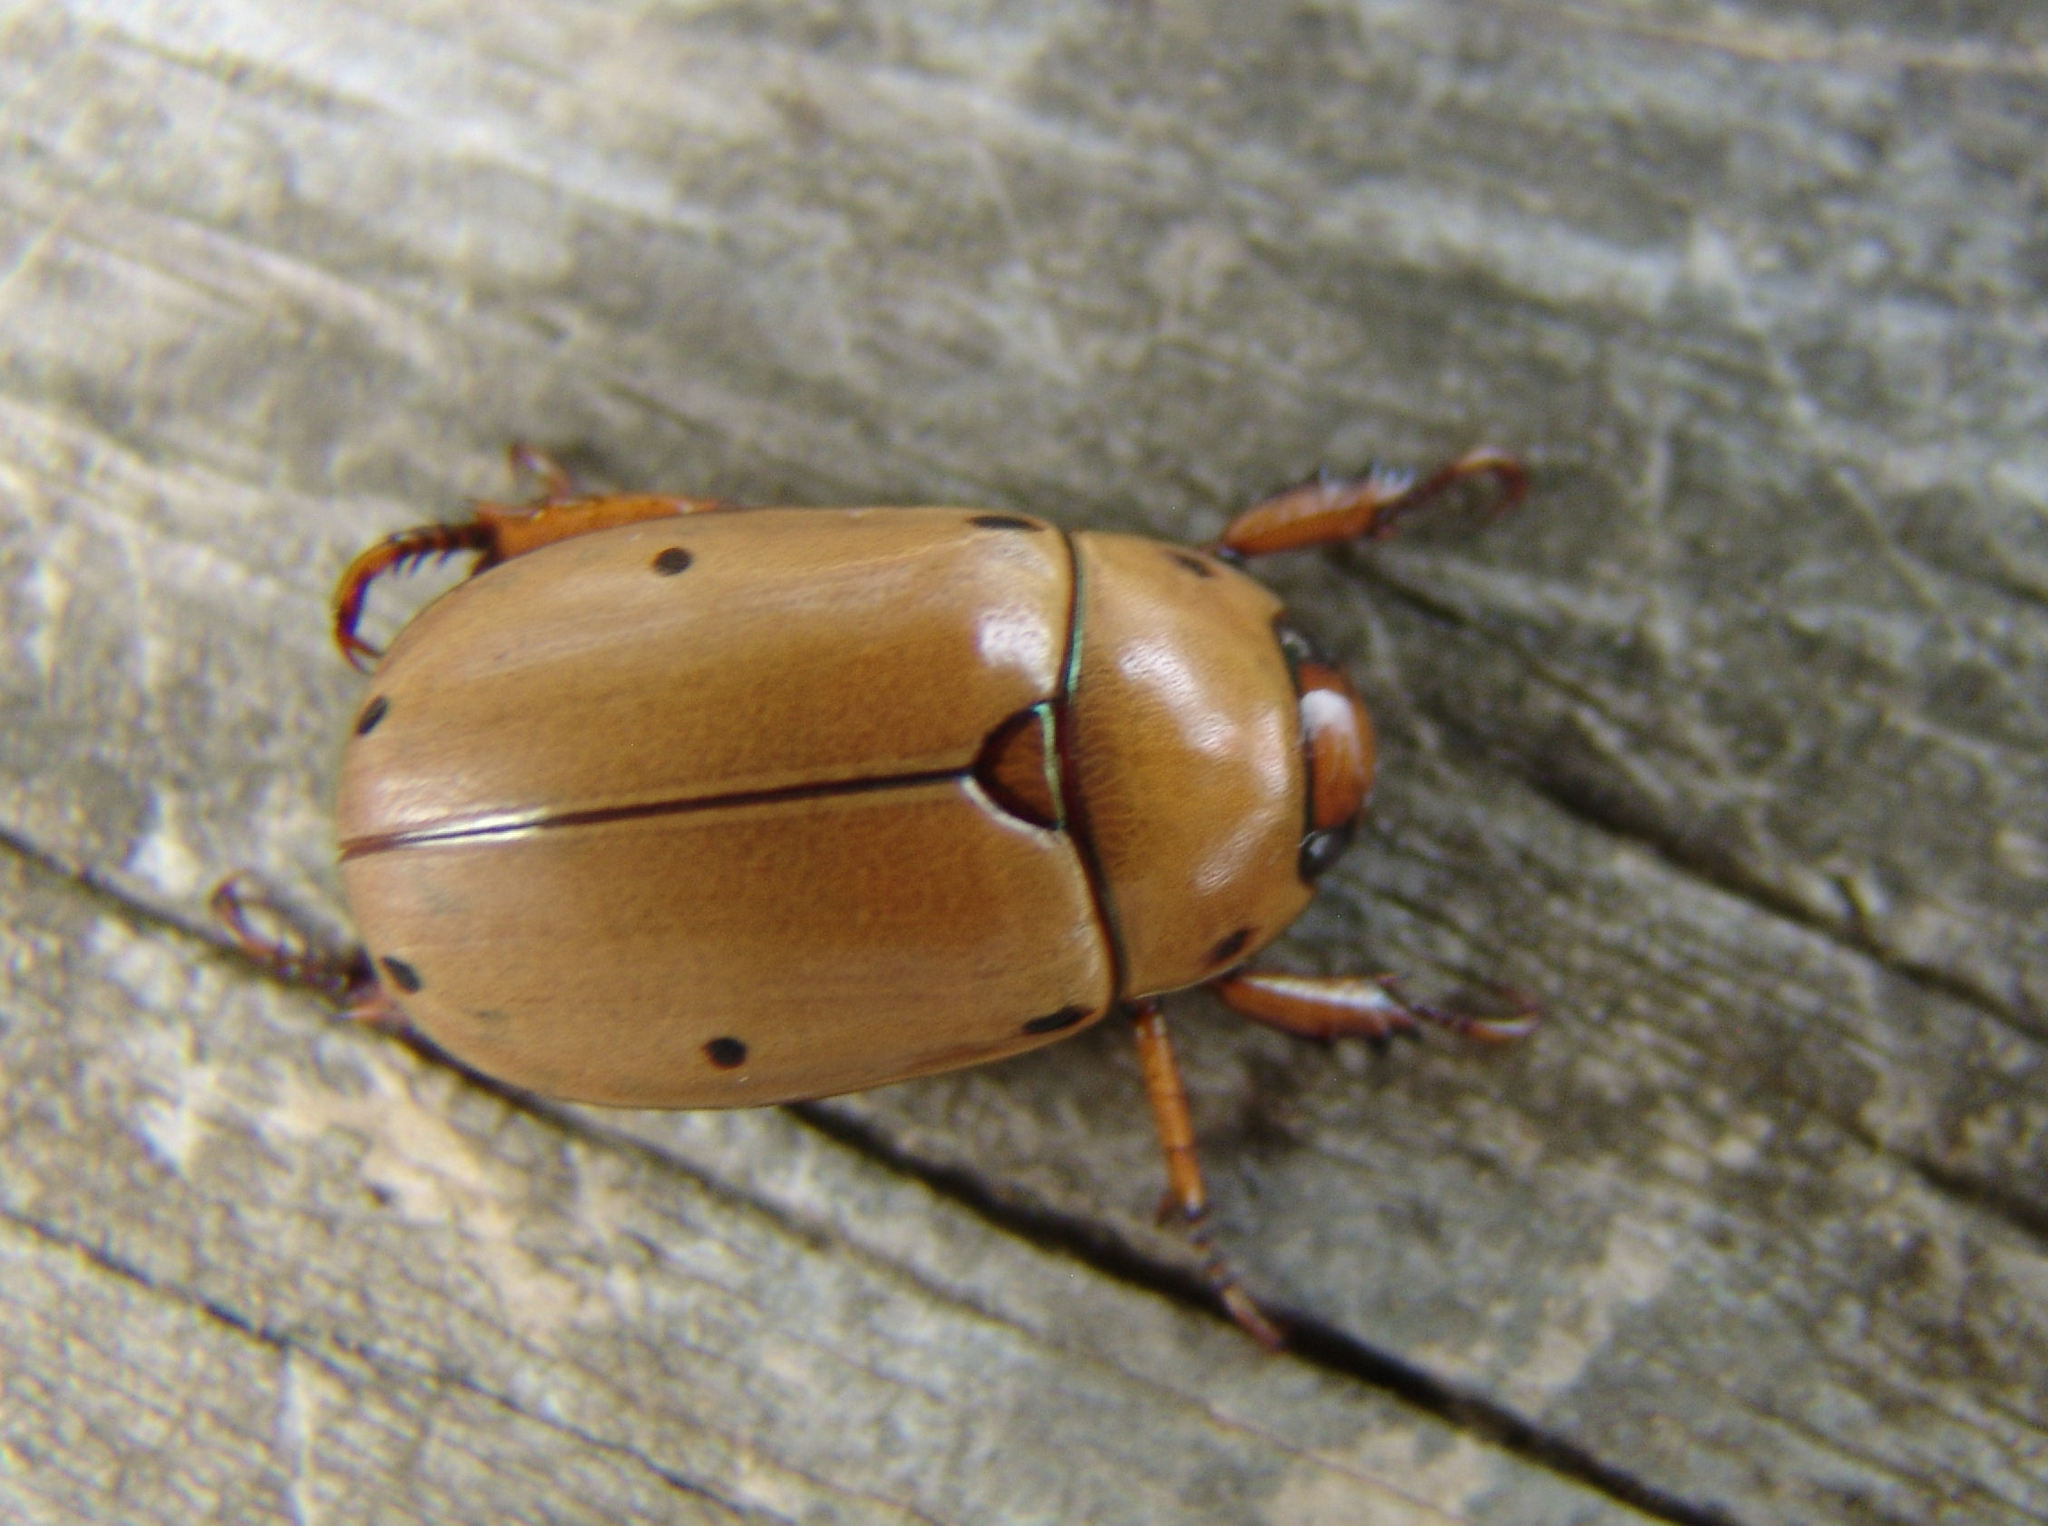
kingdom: Animalia
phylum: Arthropoda
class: Insecta
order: Coleoptera
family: Scarabaeidae
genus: Pelidnota
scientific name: Pelidnota punctata
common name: Grapevine beetle
